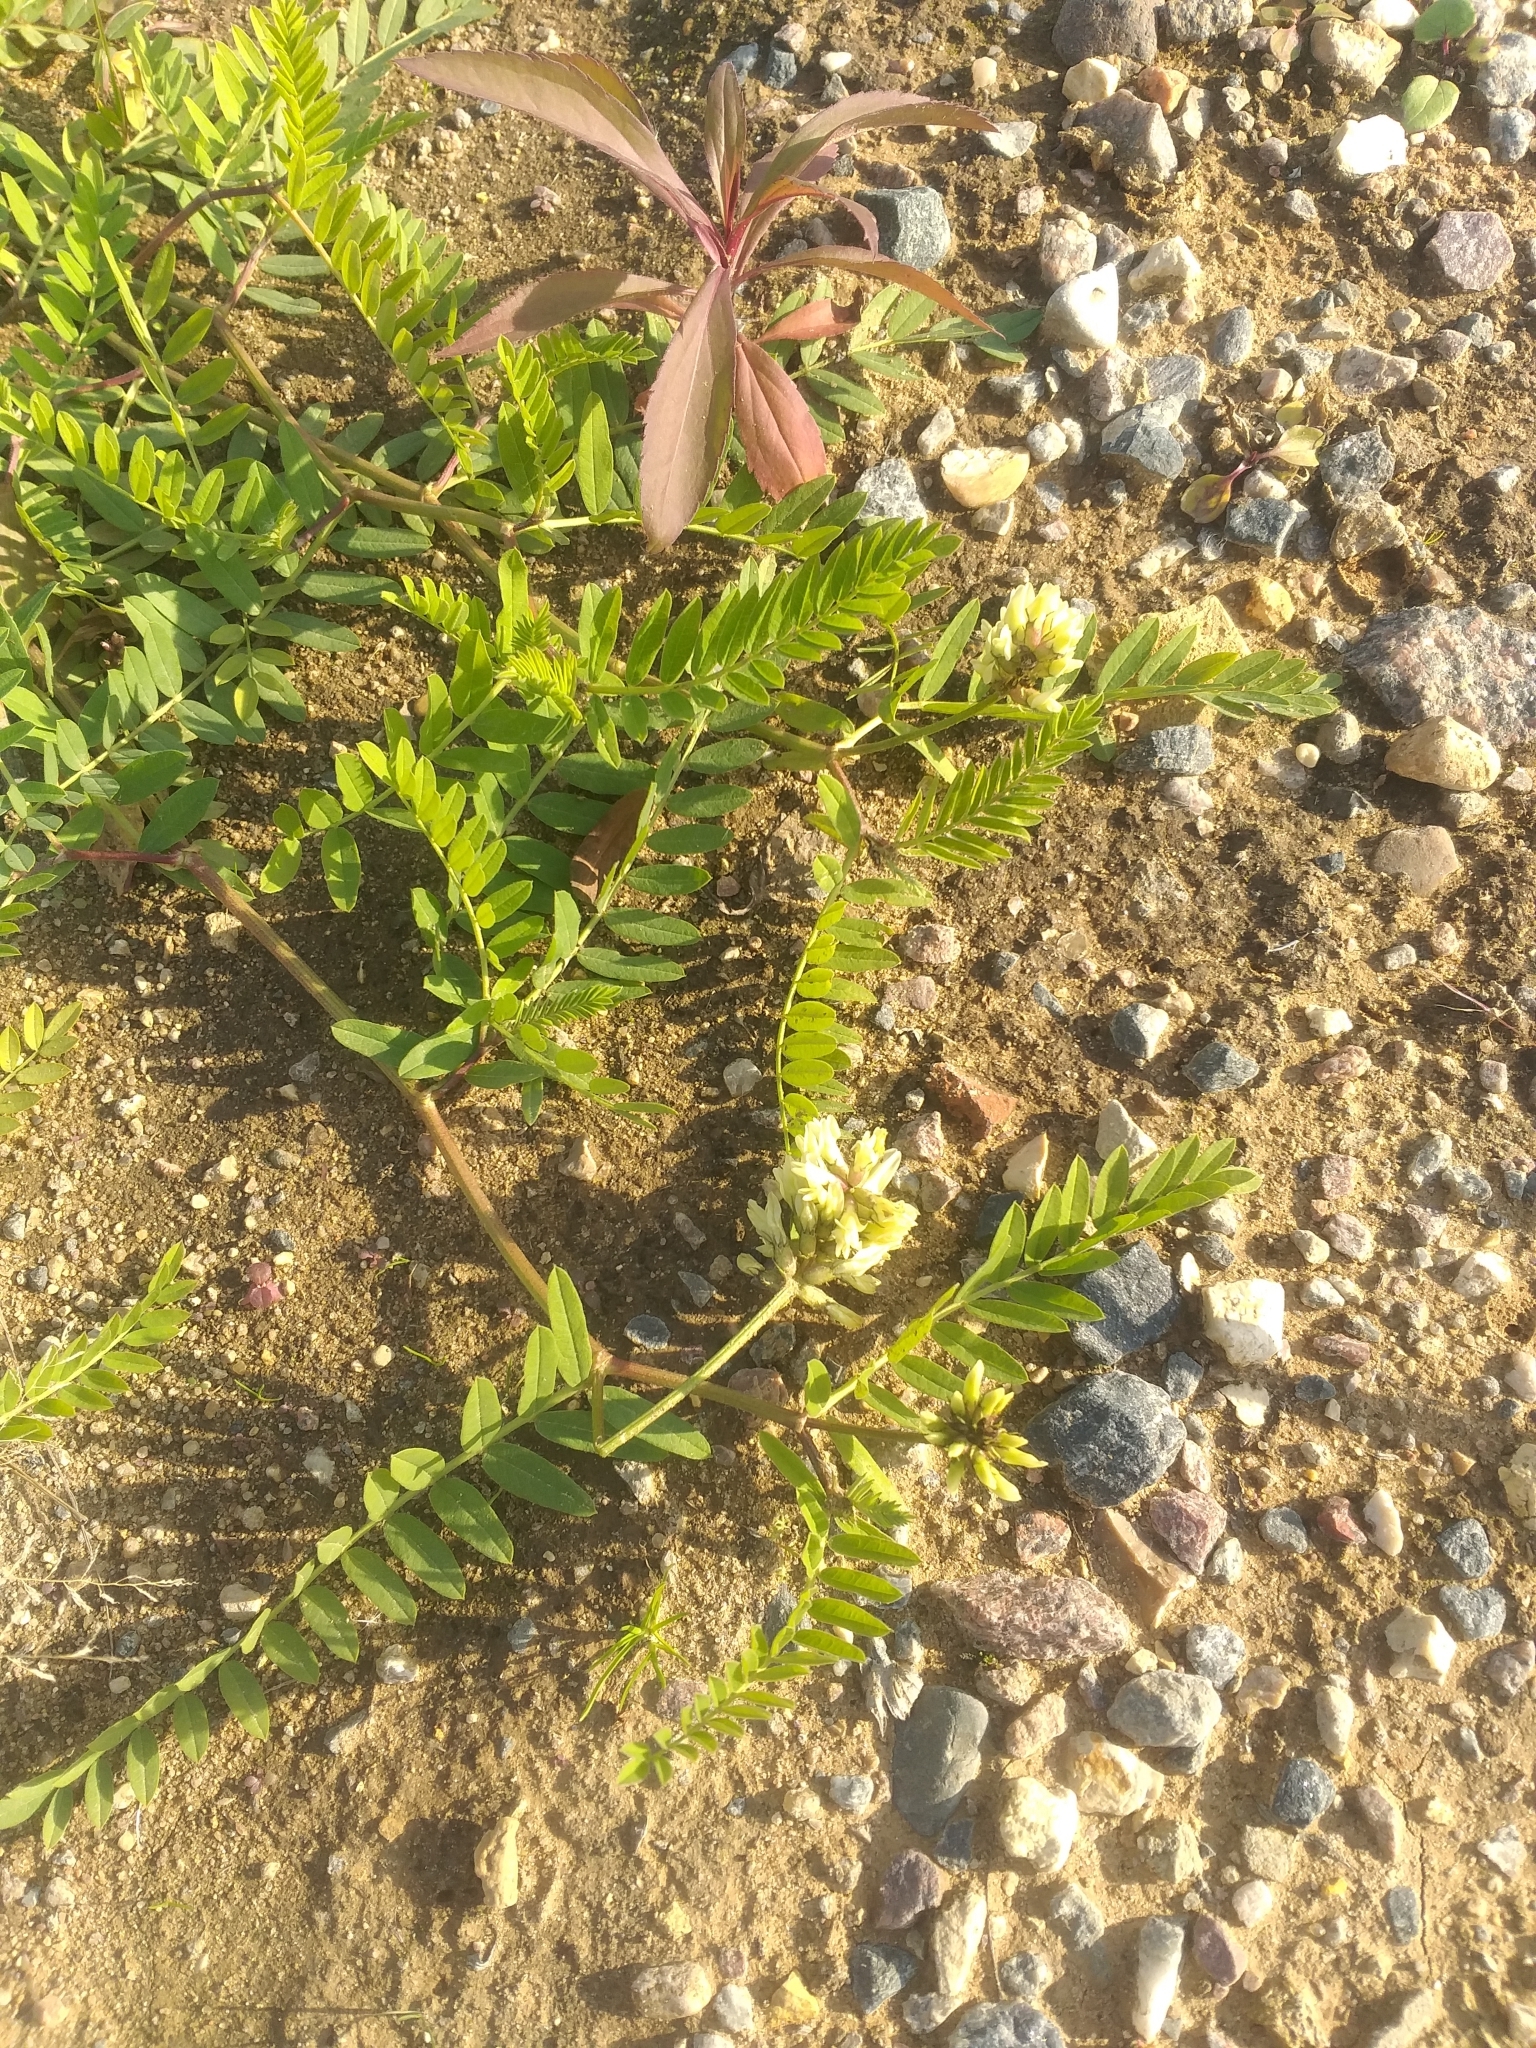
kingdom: Plantae
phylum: Tracheophyta
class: Magnoliopsida
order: Fabales
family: Fabaceae
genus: Astragalus
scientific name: Astragalus cicer
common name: Chick-pea milk-vetch
